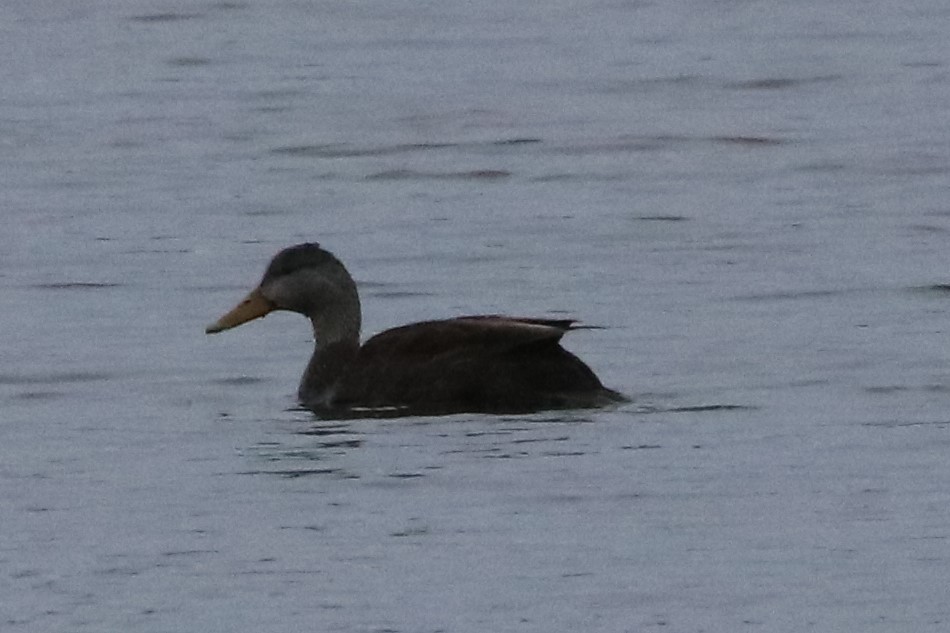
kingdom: Animalia
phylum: Chordata
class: Aves
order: Anseriformes
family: Anatidae
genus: Anas
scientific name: Anas rubripes
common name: American black duck
